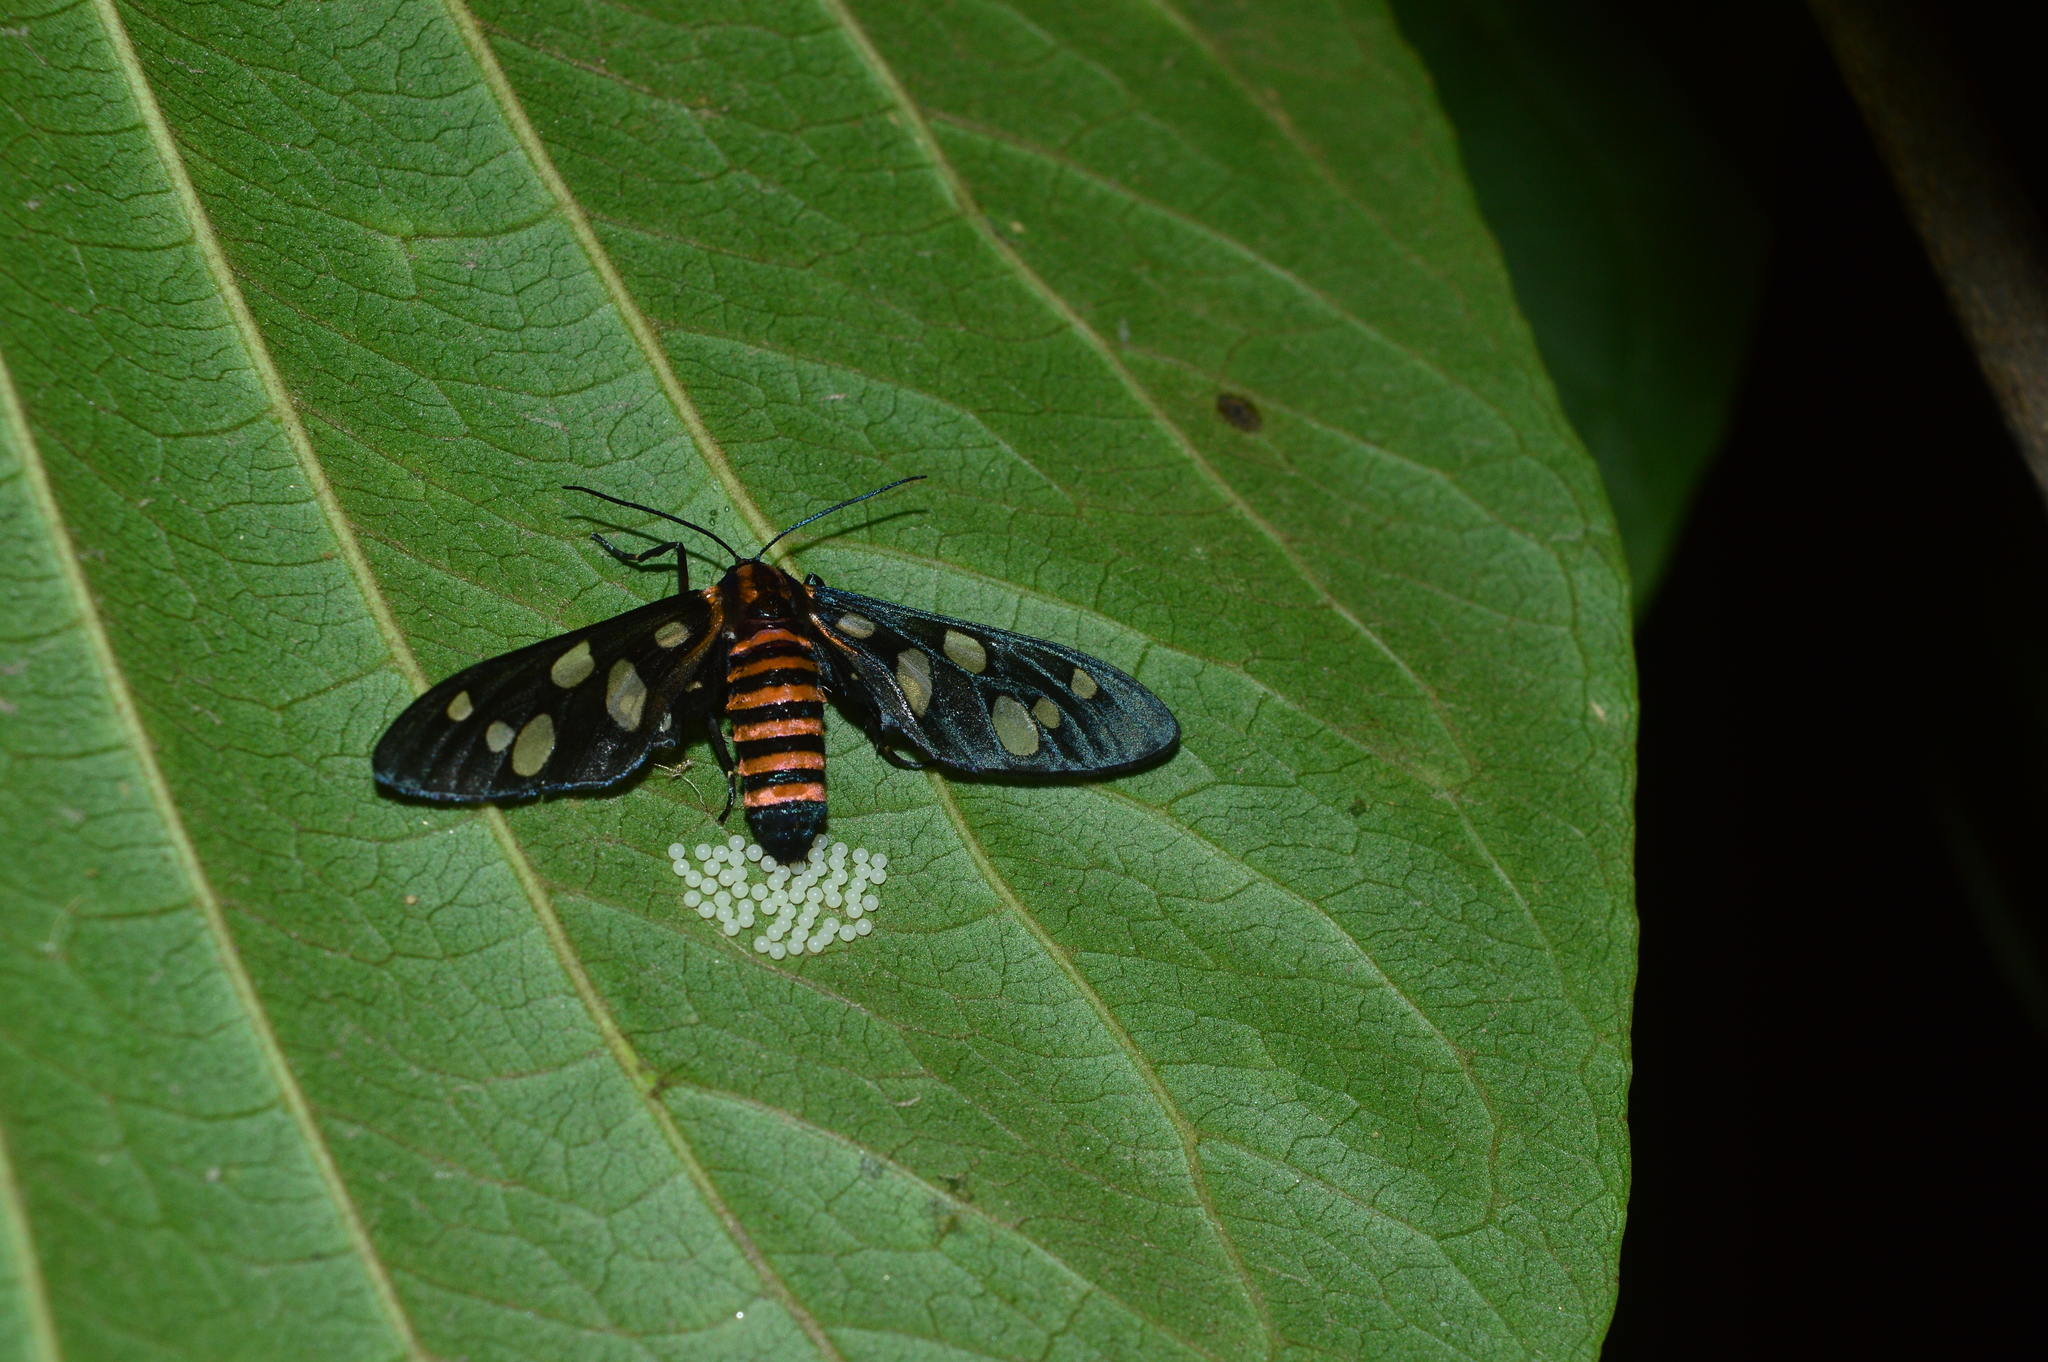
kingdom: Animalia
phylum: Arthropoda
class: Insecta
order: Lepidoptera
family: Erebidae
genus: Amata
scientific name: Amata passalis
